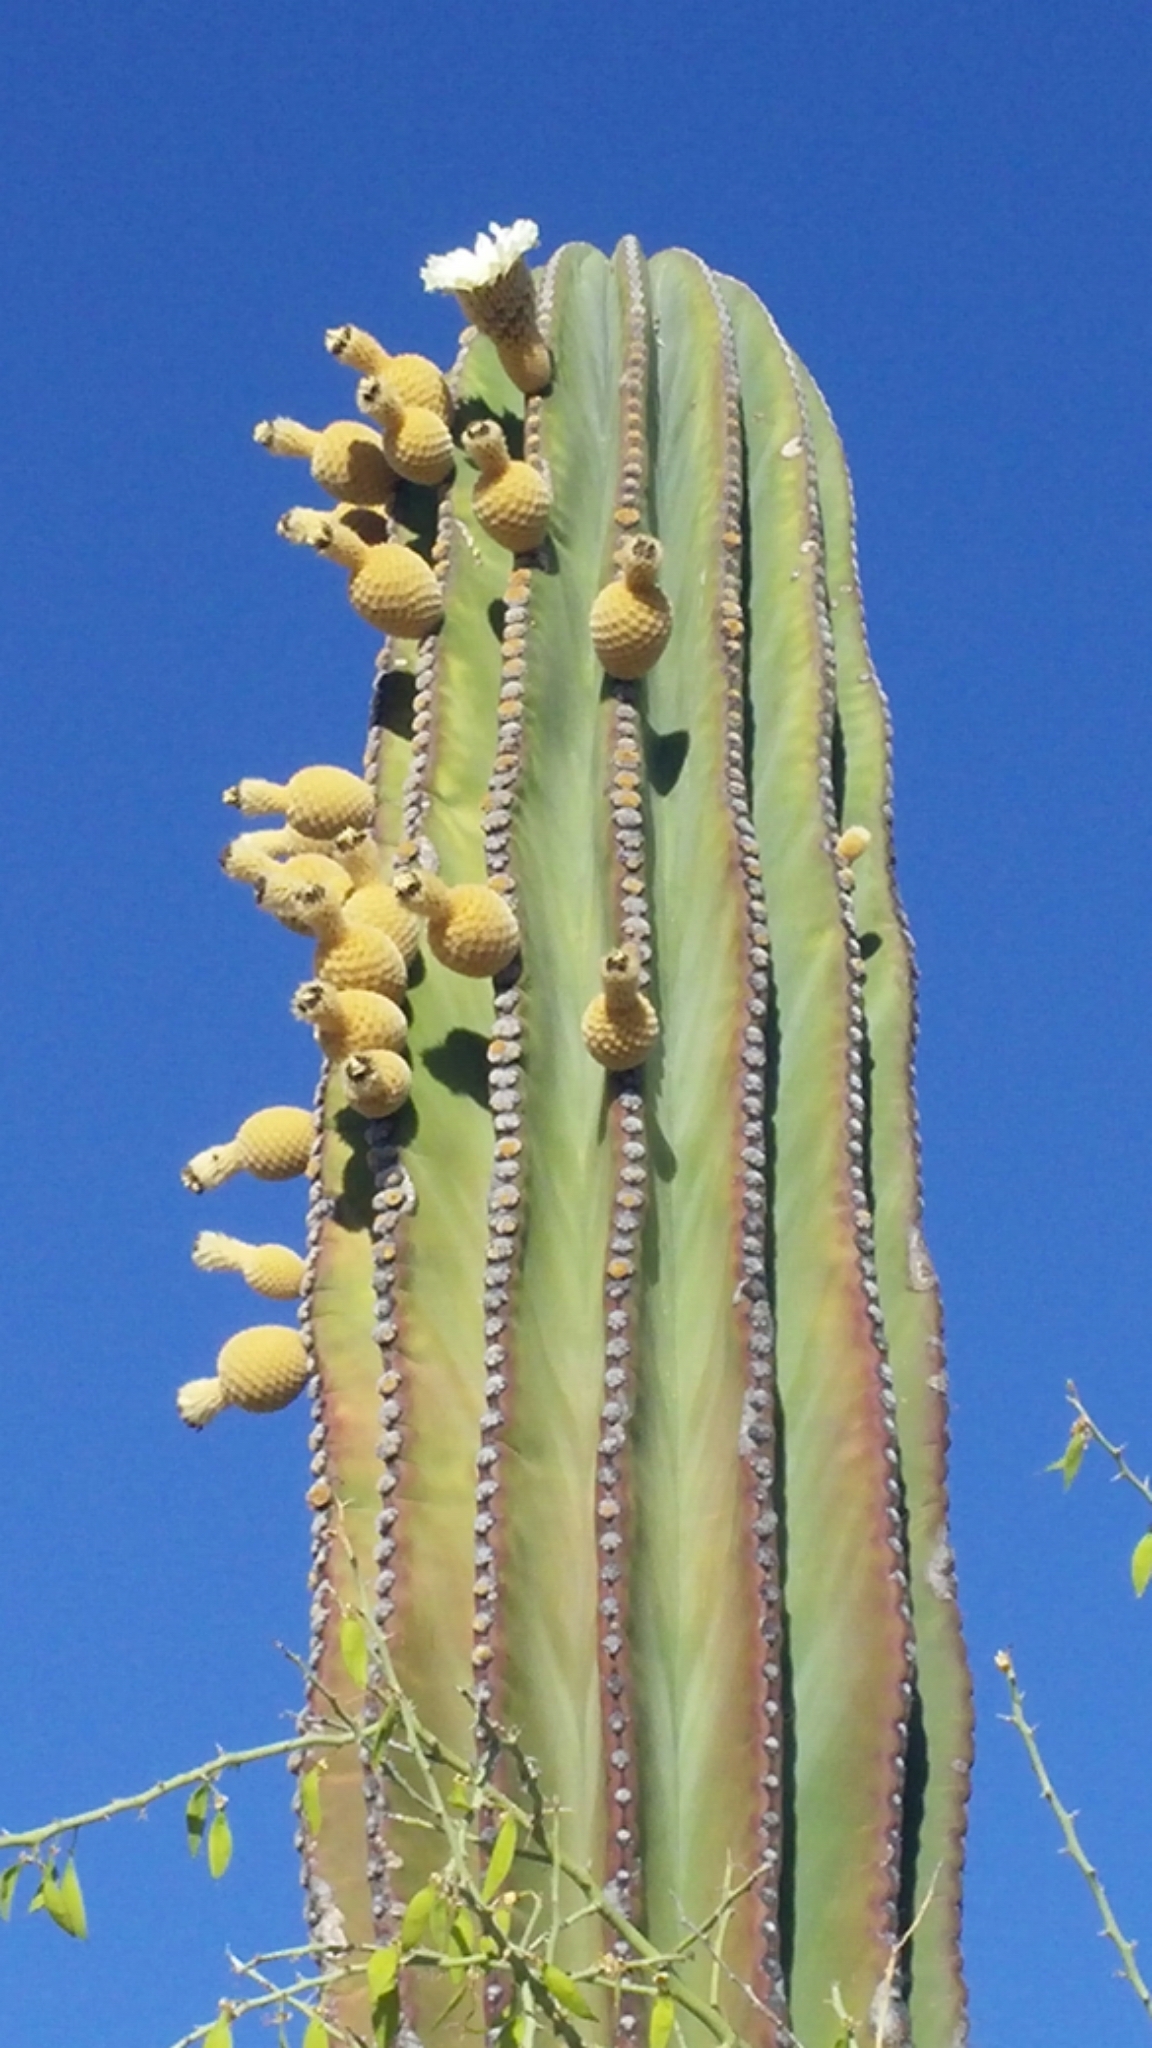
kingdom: Plantae
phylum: Tracheophyta
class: Magnoliopsida
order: Caryophyllales
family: Cactaceae
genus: Pachycereus
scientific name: Pachycereus pringlei
